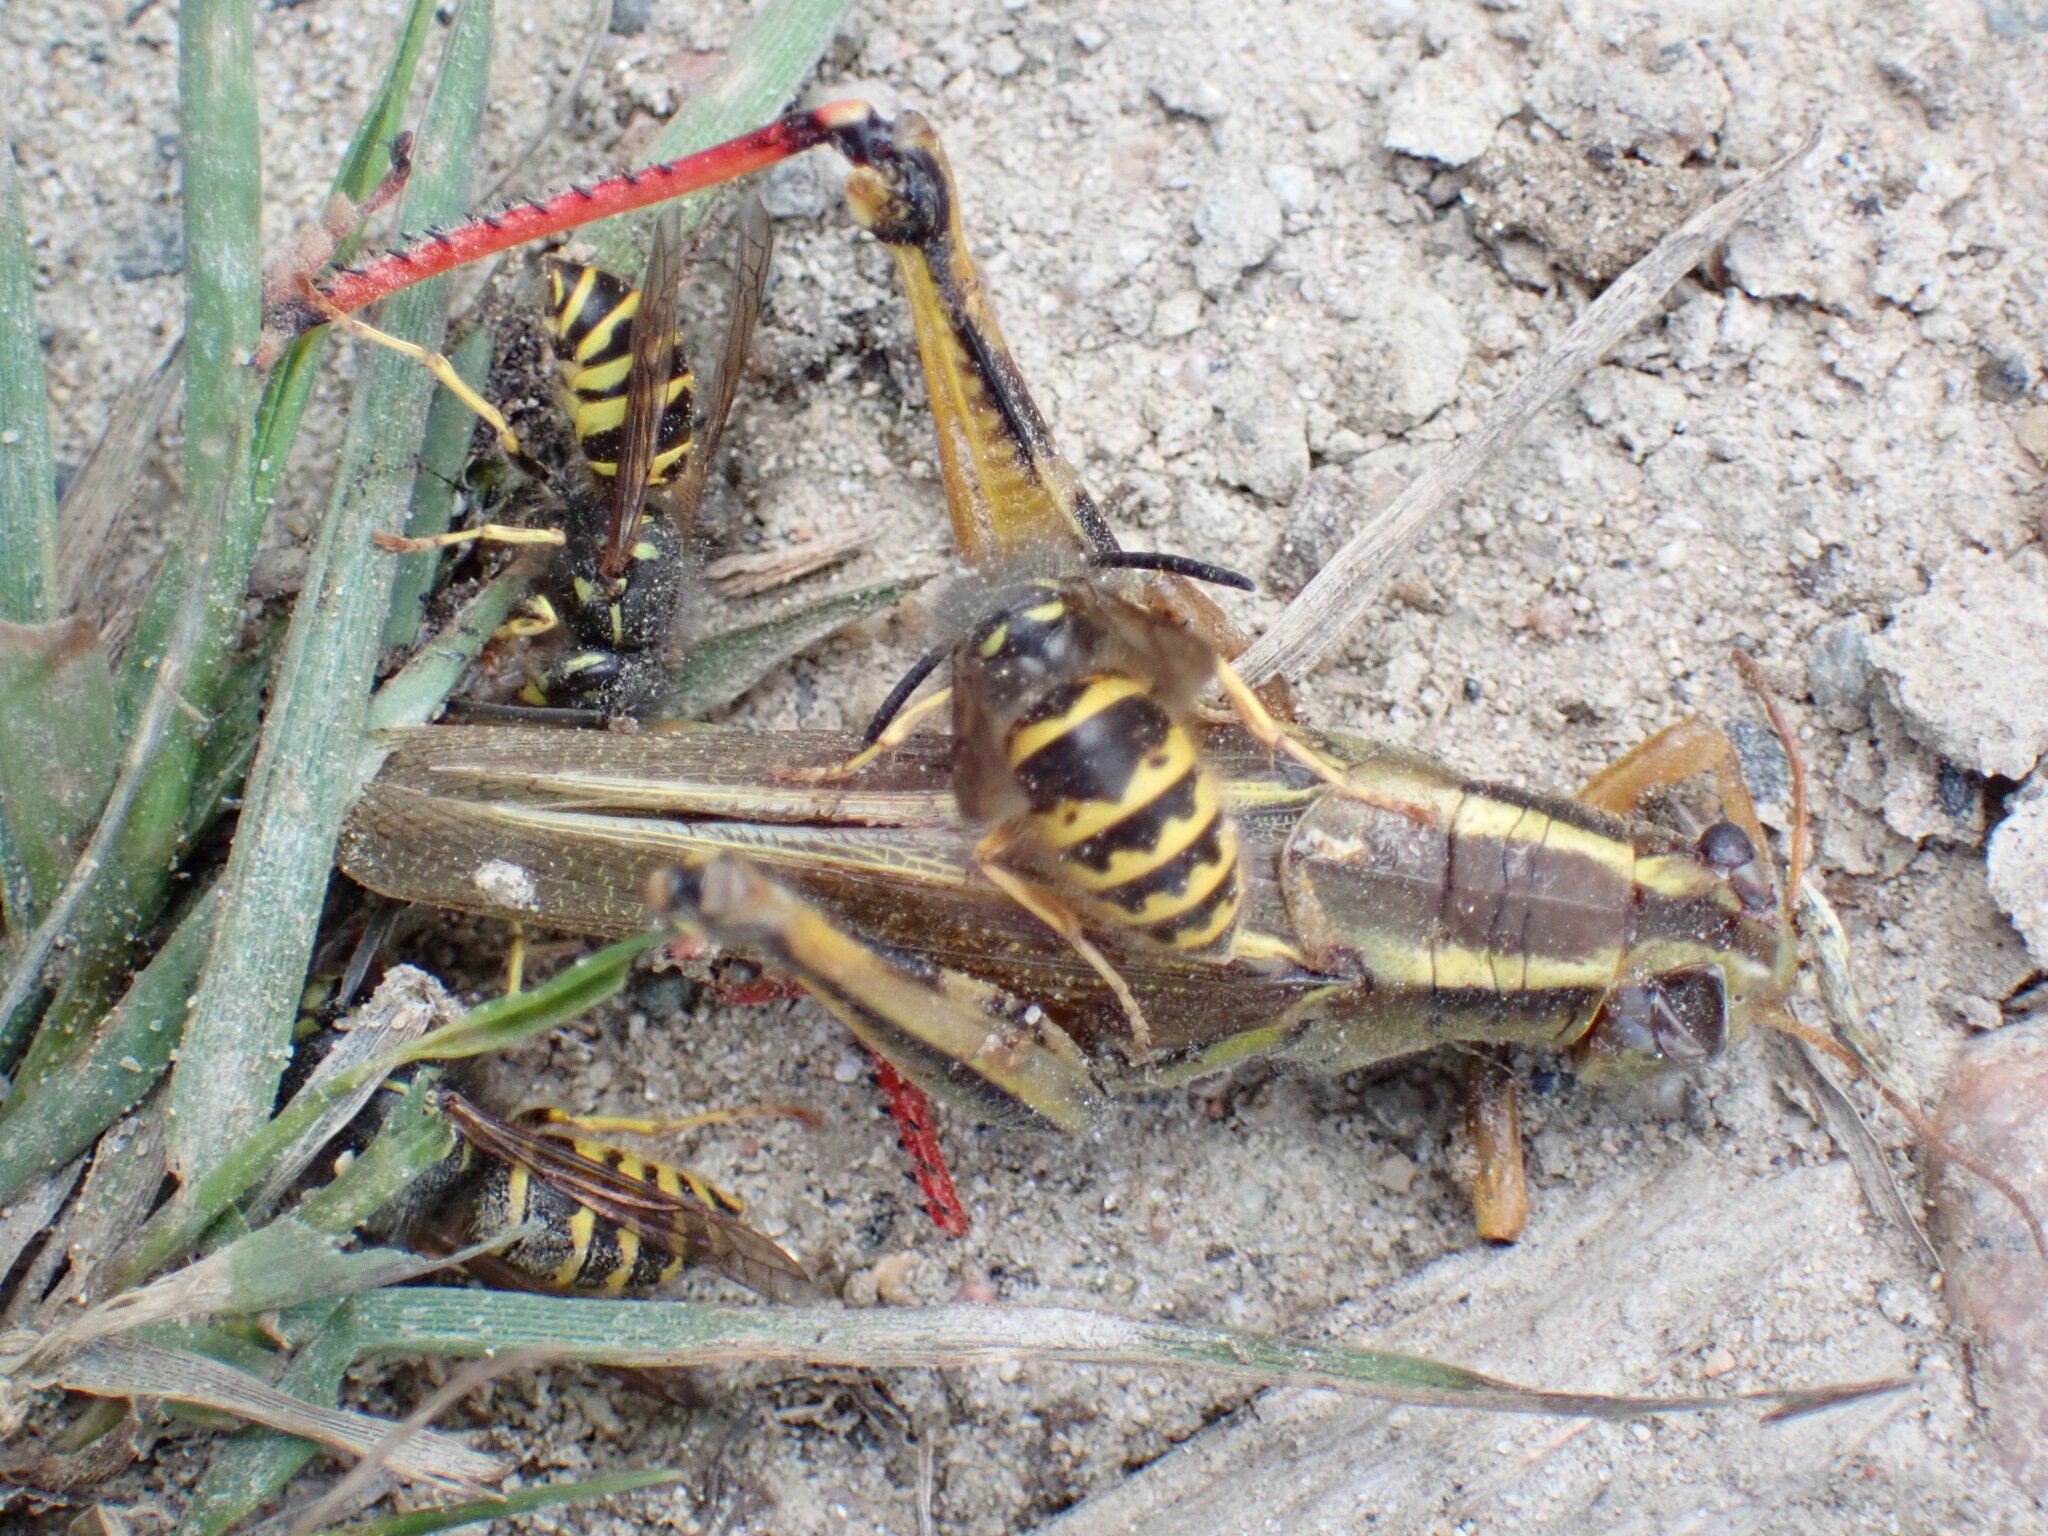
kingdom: Animalia
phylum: Arthropoda
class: Insecta
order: Hymenoptera
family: Vespidae
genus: Vespula
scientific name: Vespula alascensis
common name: Alaska yellowjacket
